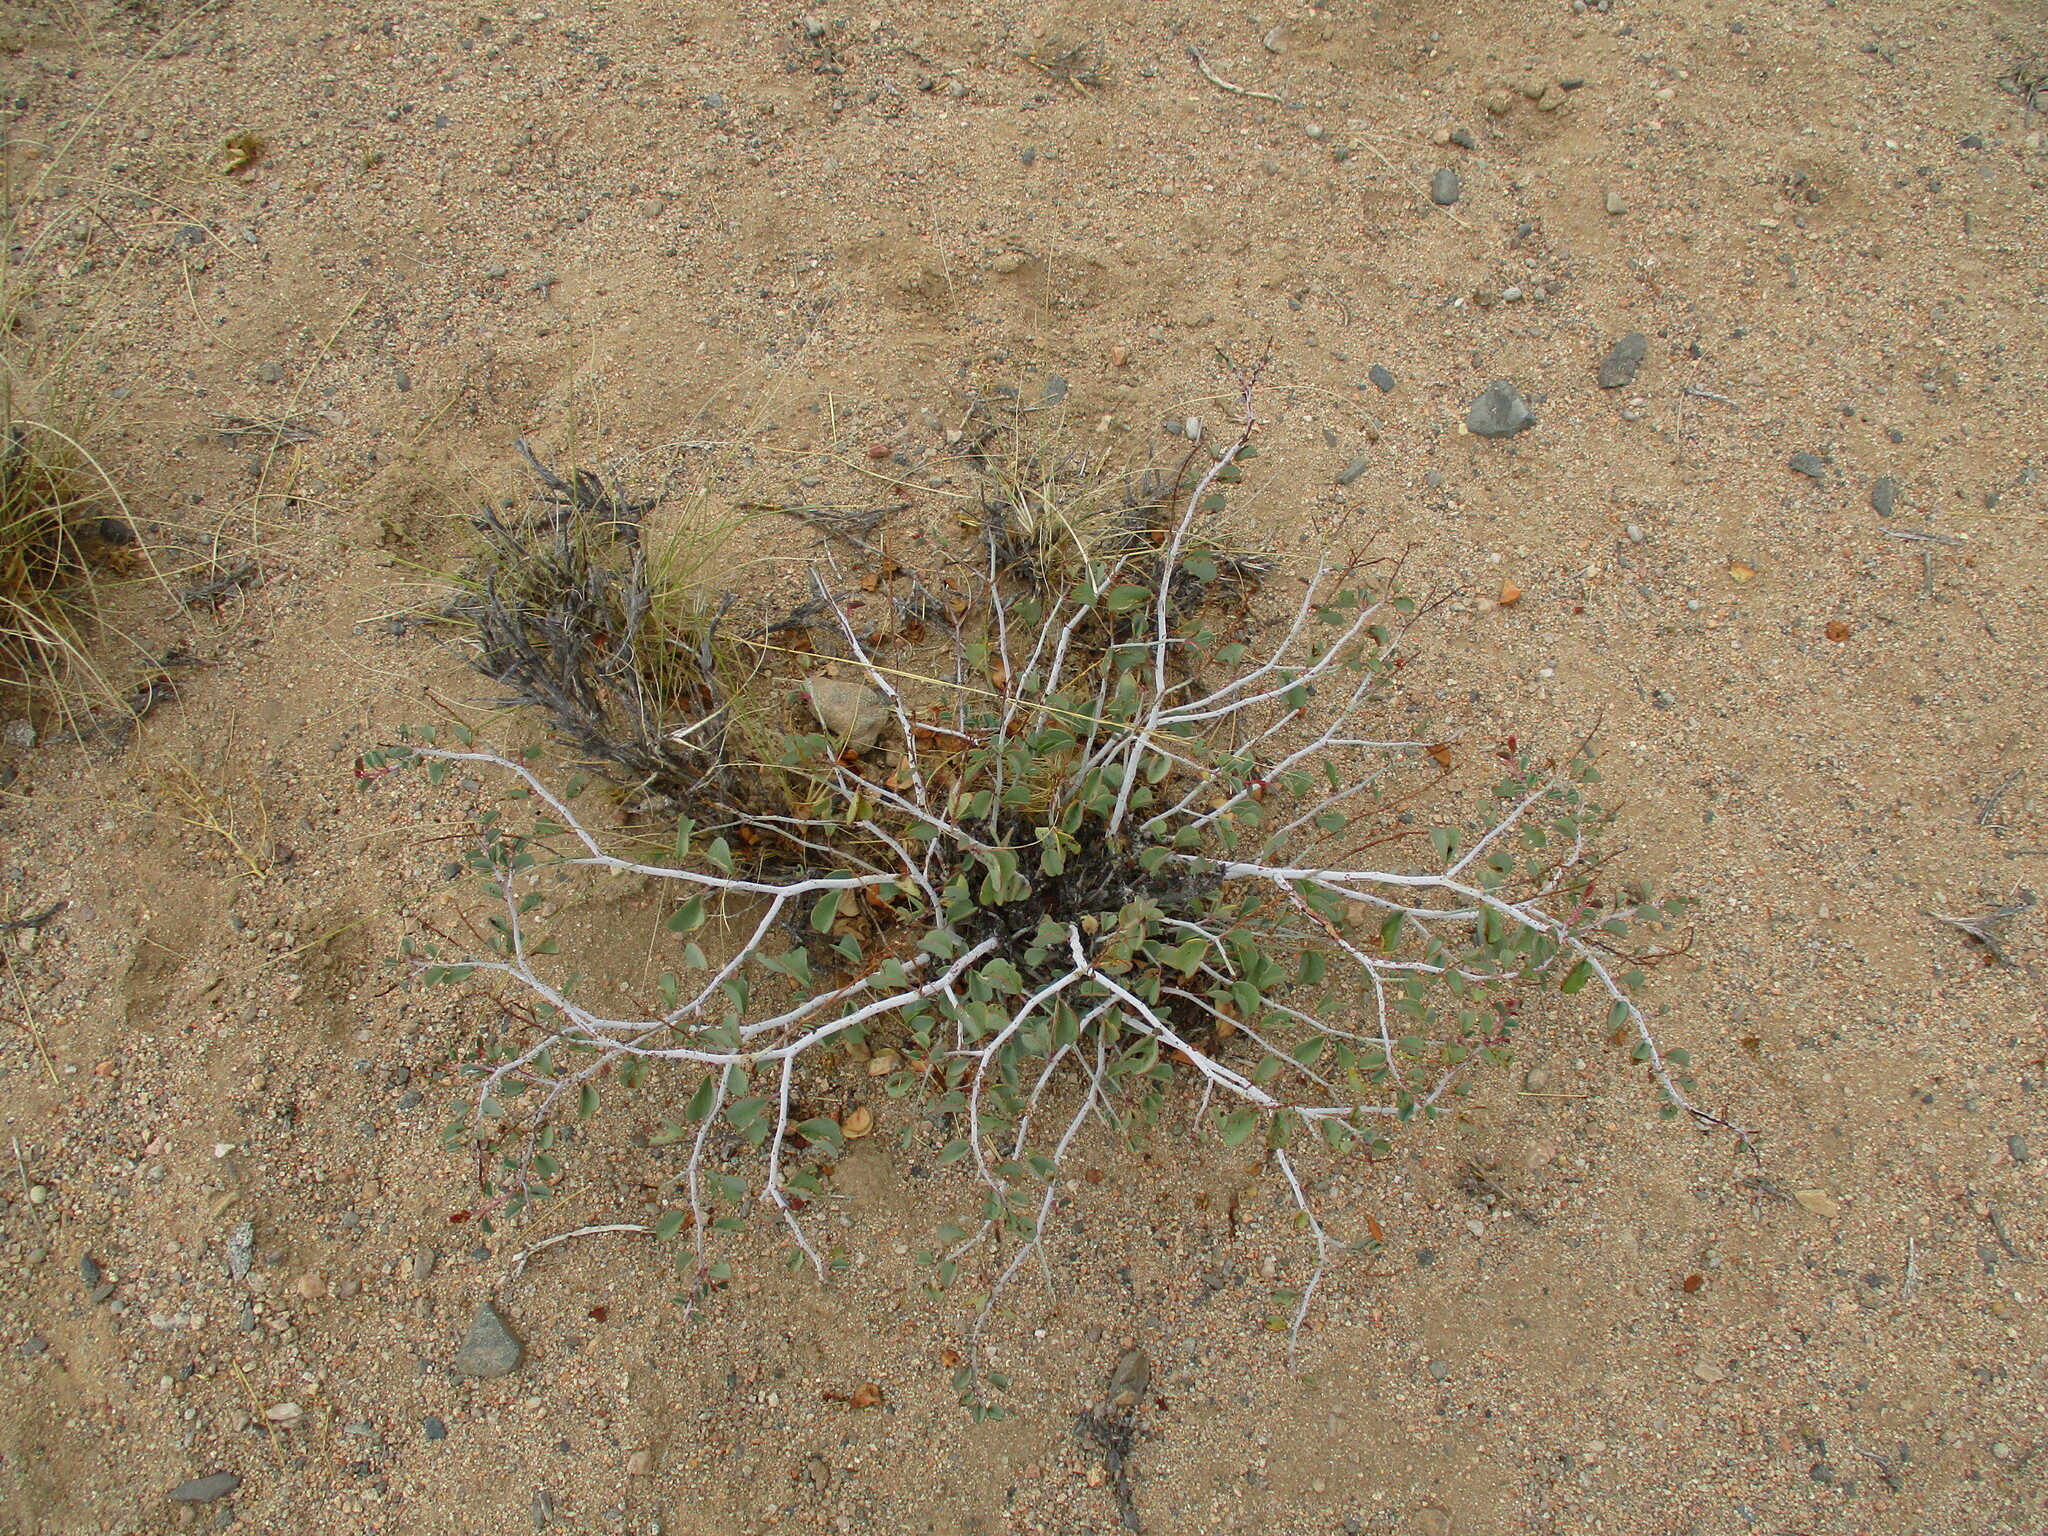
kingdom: Plantae
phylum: Tracheophyta
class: Magnoliopsida
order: Fabales
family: Fabaceae
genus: Adenolobus
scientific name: Adenolobus pechuelii
